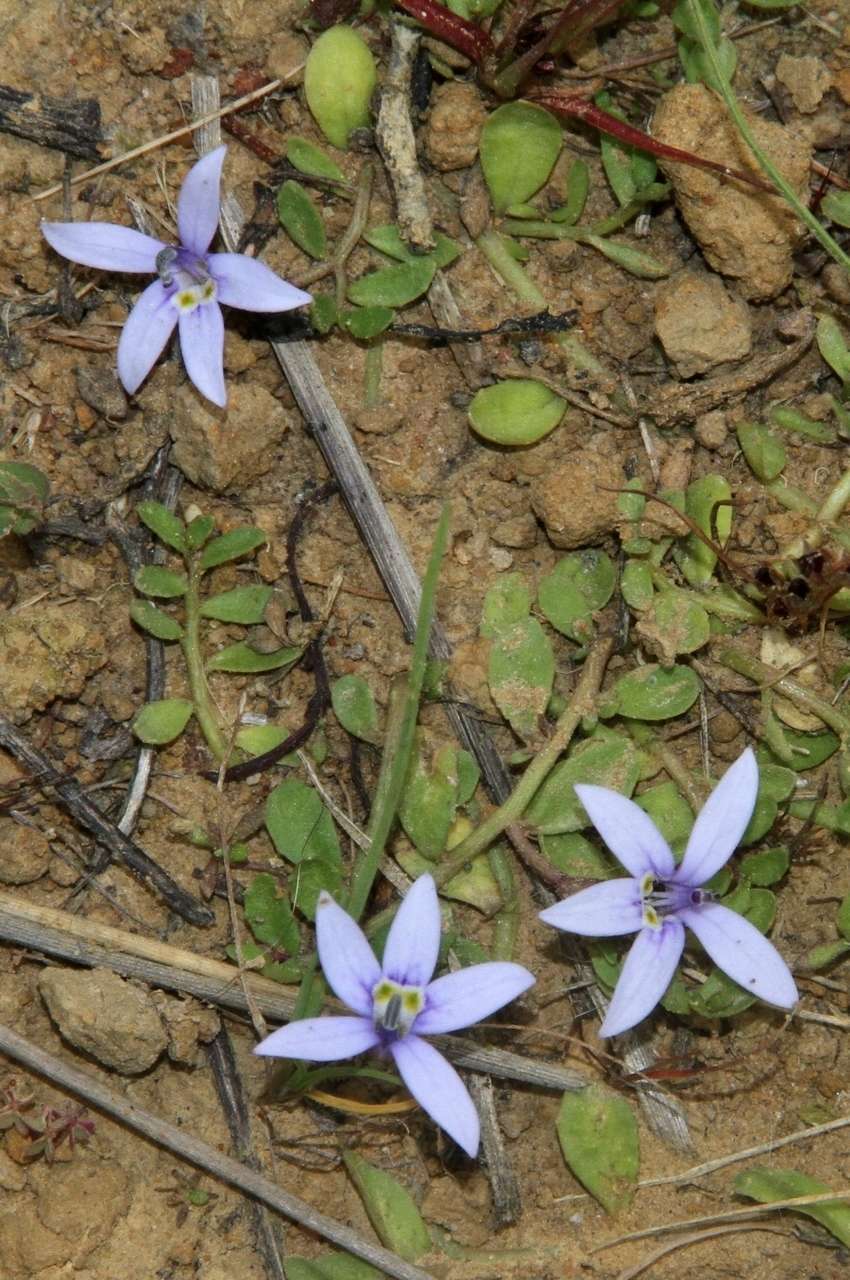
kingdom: Plantae
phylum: Tracheophyta
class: Magnoliopsida
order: Asterales
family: Campanulaceae
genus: Isotoma
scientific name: Isotoma fluviatilis
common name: Isotoma
